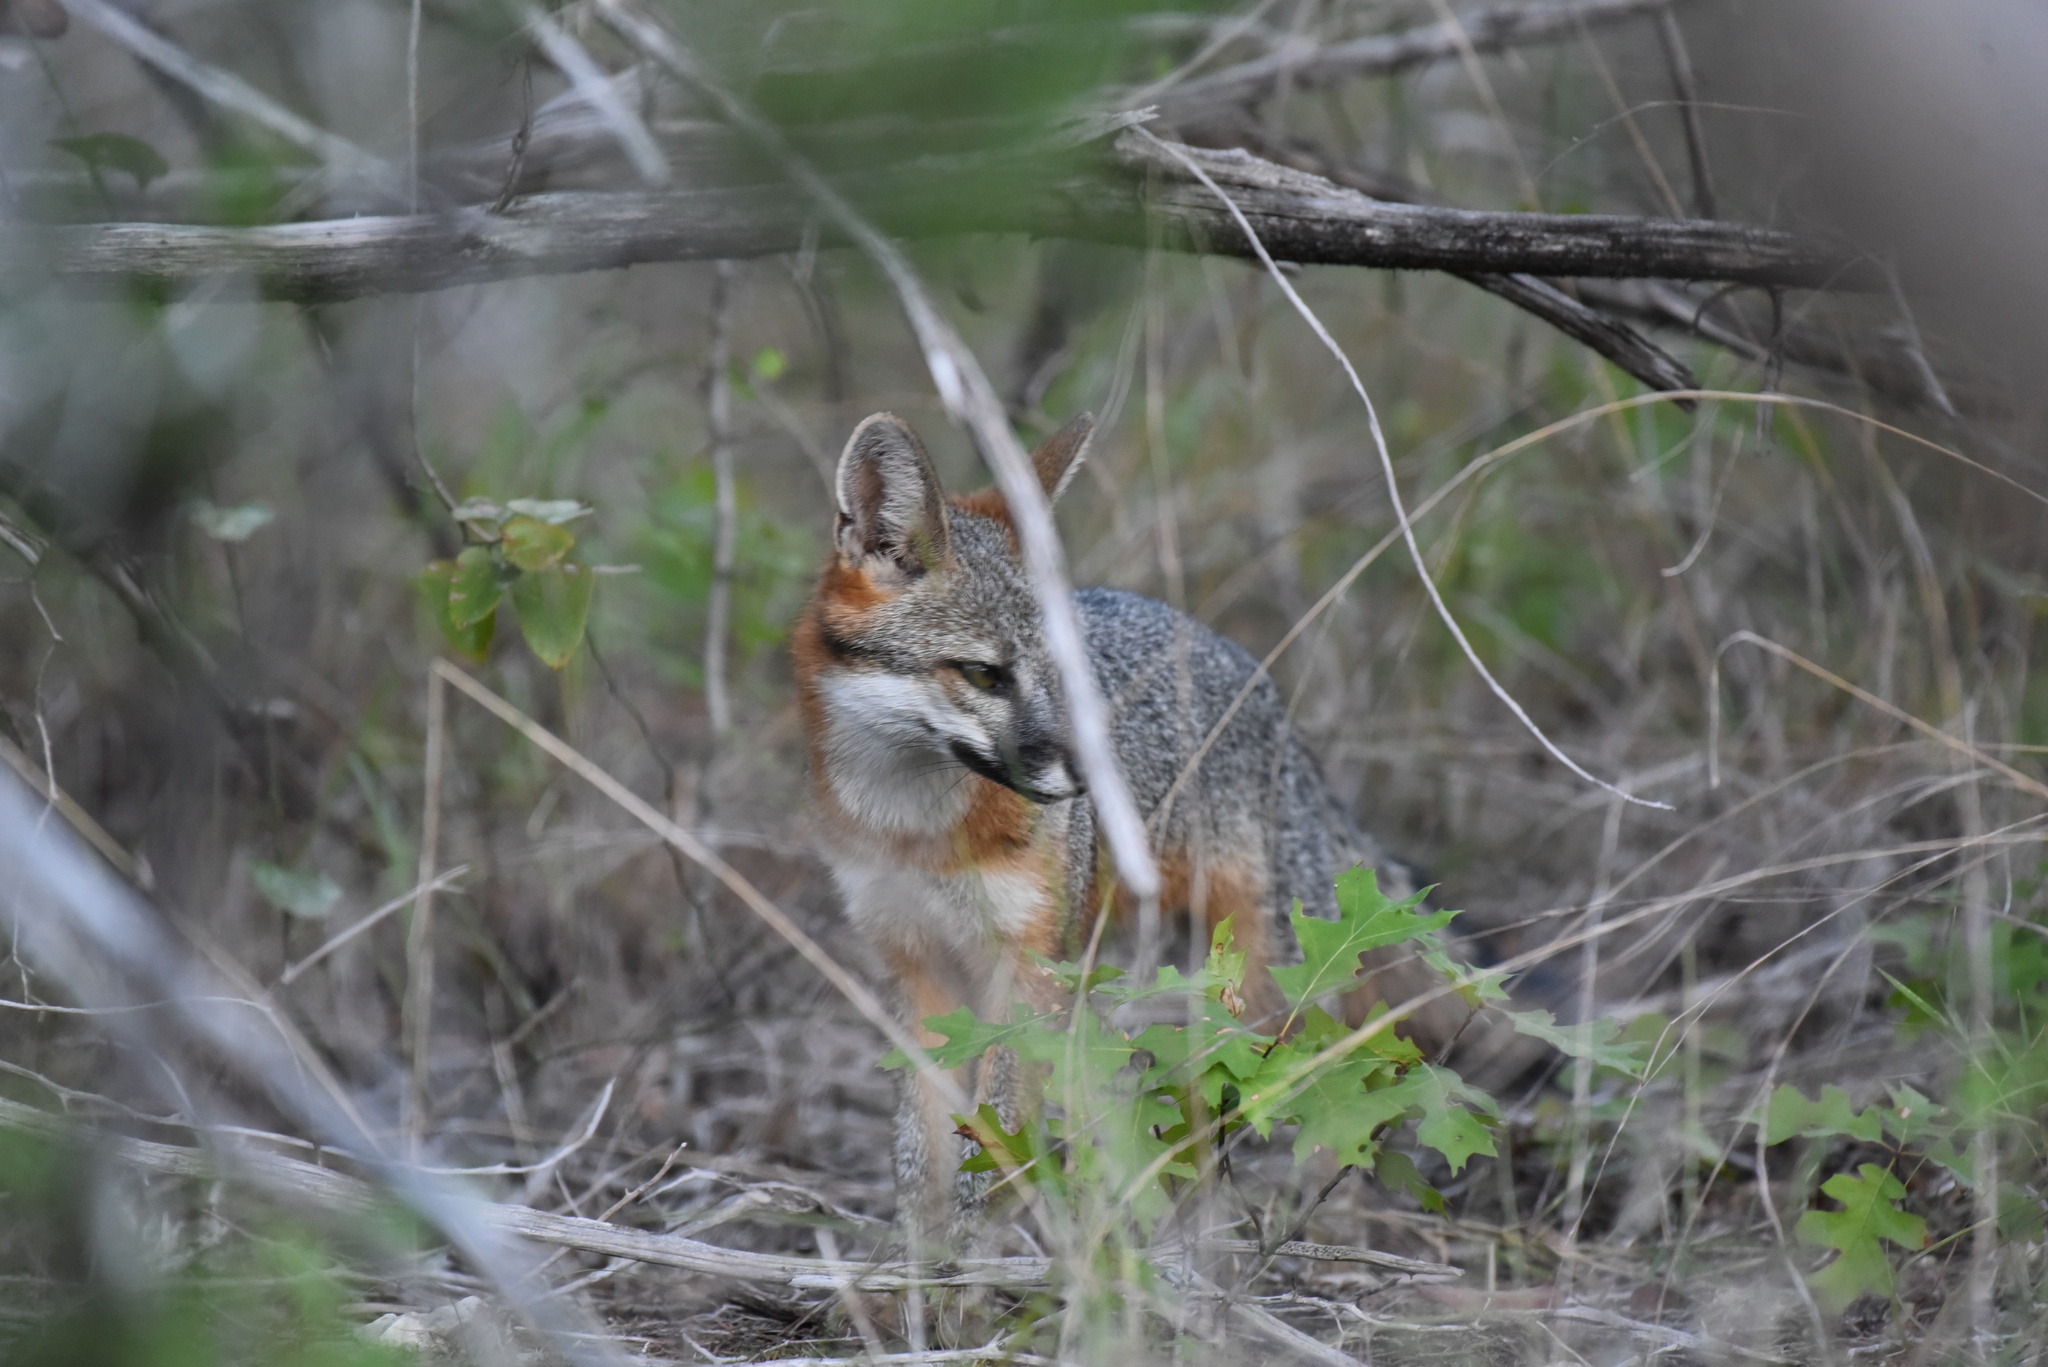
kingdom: Animalia
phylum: Chordata
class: Mammalia
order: Carnivora
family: Canidae
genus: Urocyon
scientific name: Urocyon cinereoargenteus
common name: Gray fox
